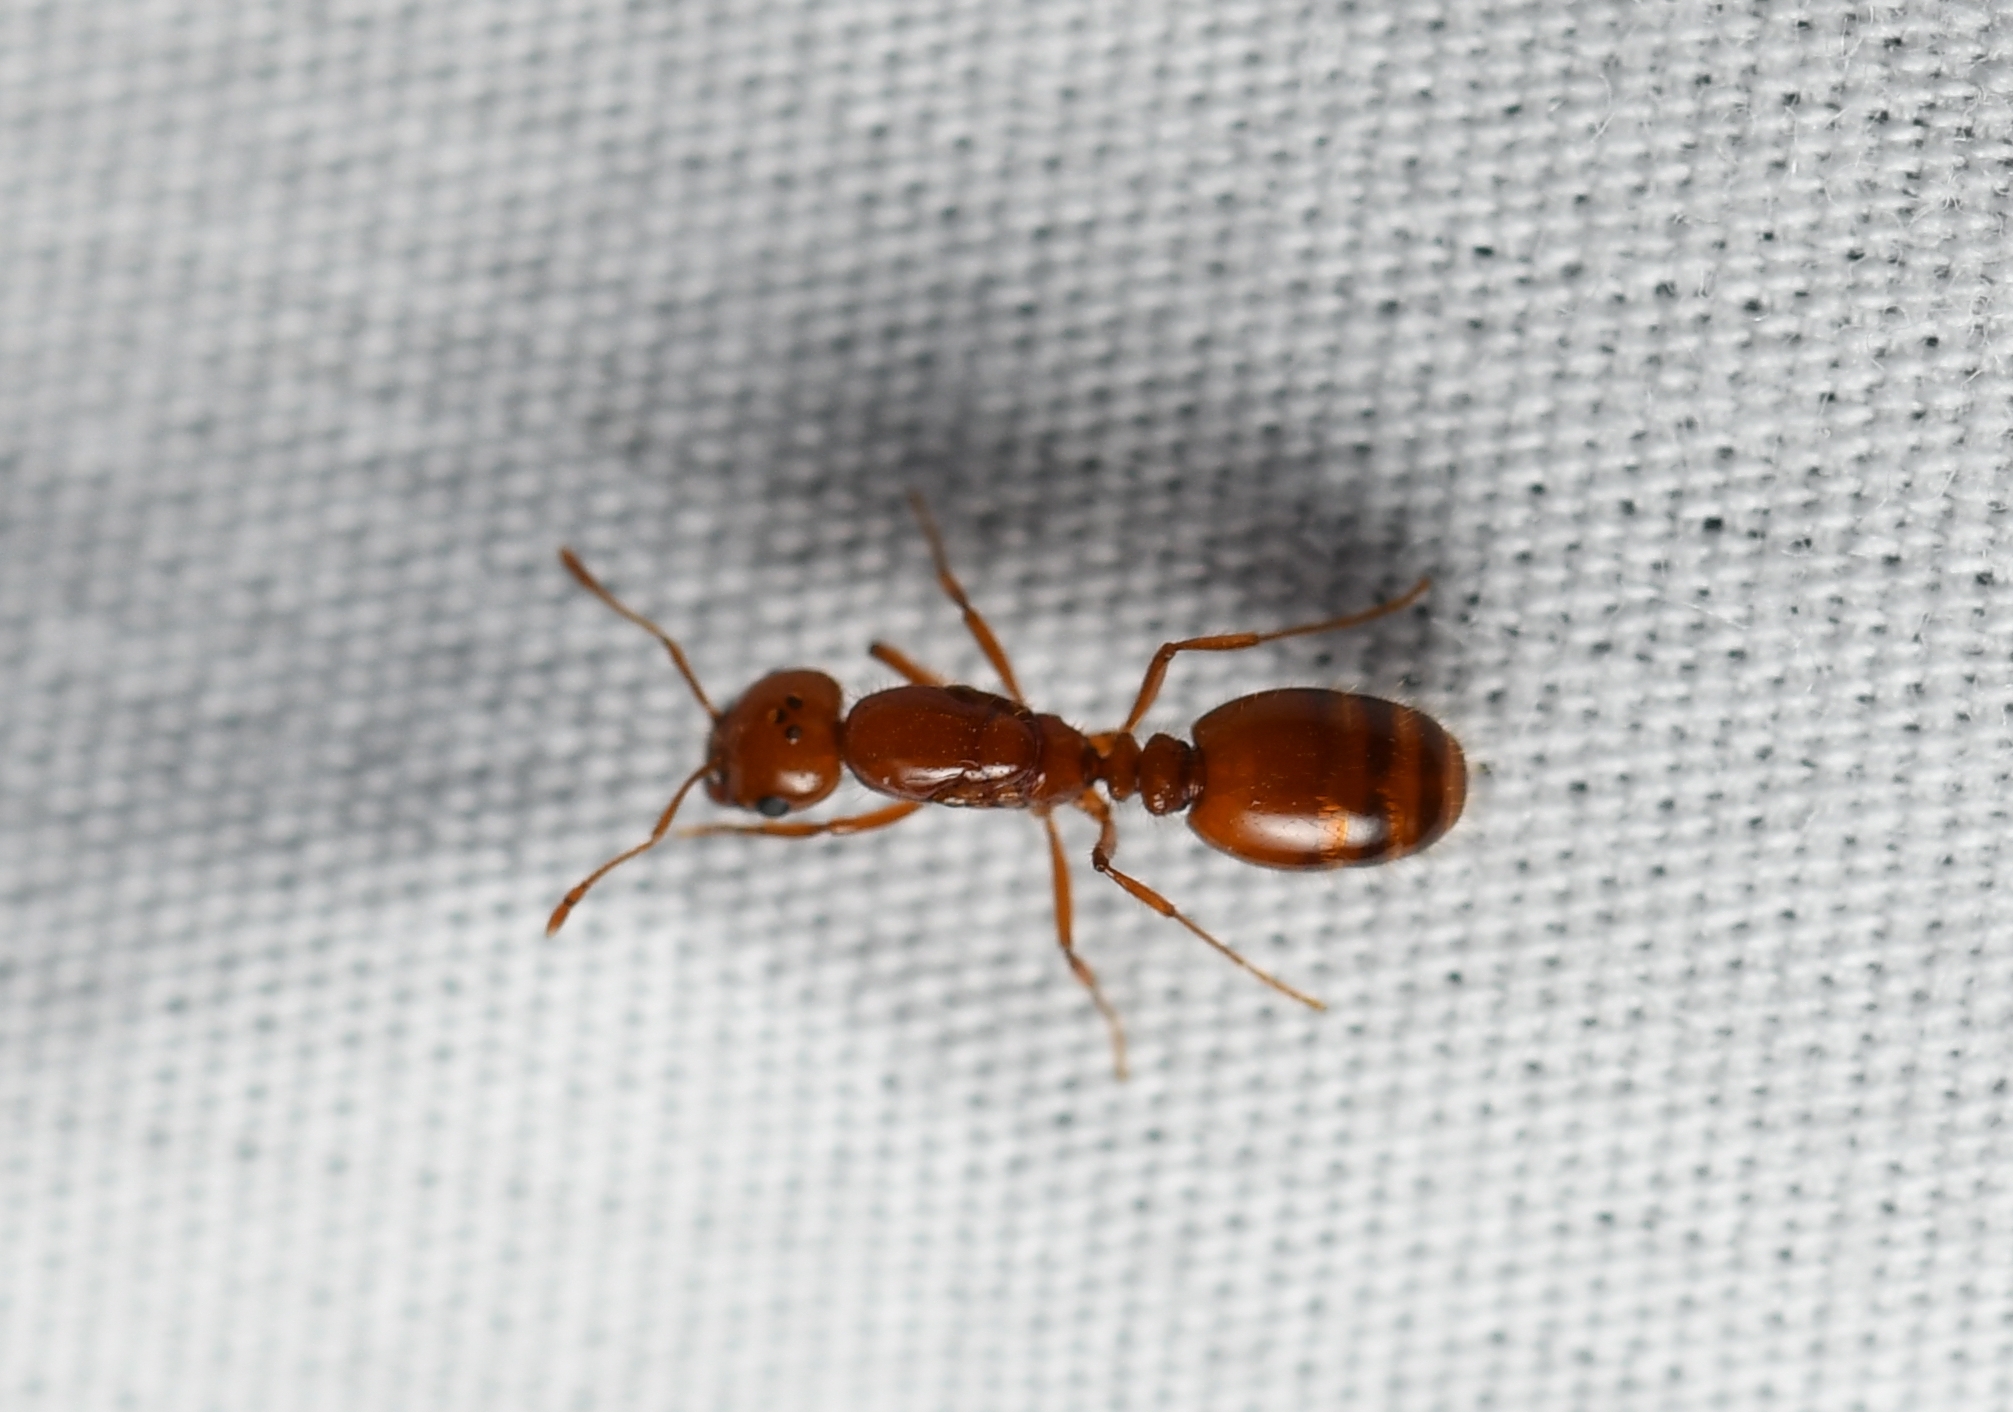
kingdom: Animalia
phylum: Arthropoda
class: Insecta
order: Hymenoptera
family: Formicidae
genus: Solenopsis
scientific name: Solenopsis amblychila
